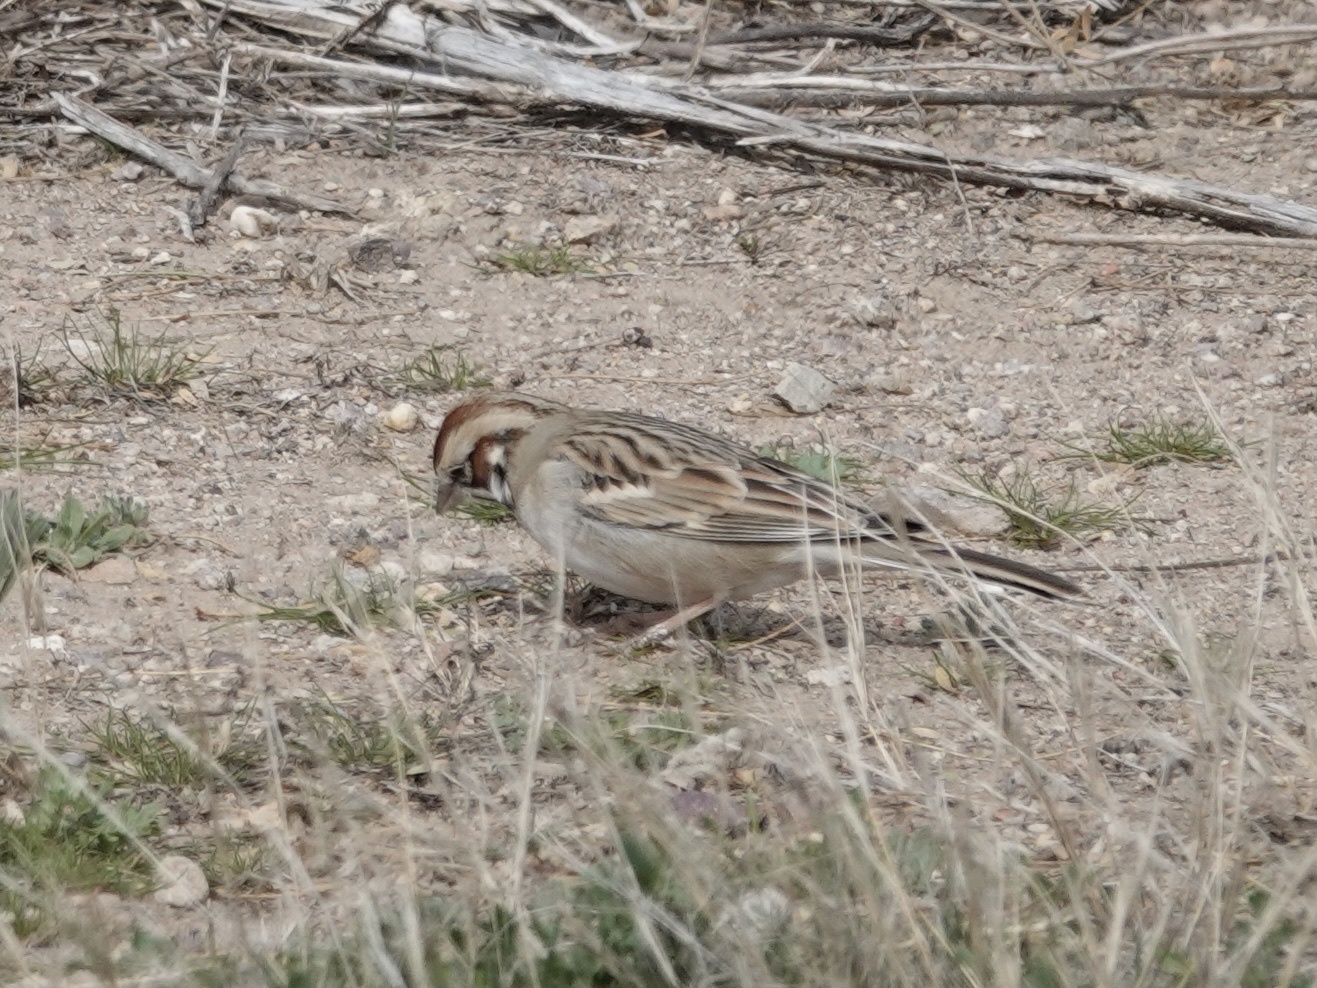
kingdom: Animalia
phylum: Chordata
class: Aves
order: Passeriformes
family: Passerellidae
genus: Chondestes
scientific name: Chondestes grammacus
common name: Lark sparrow
